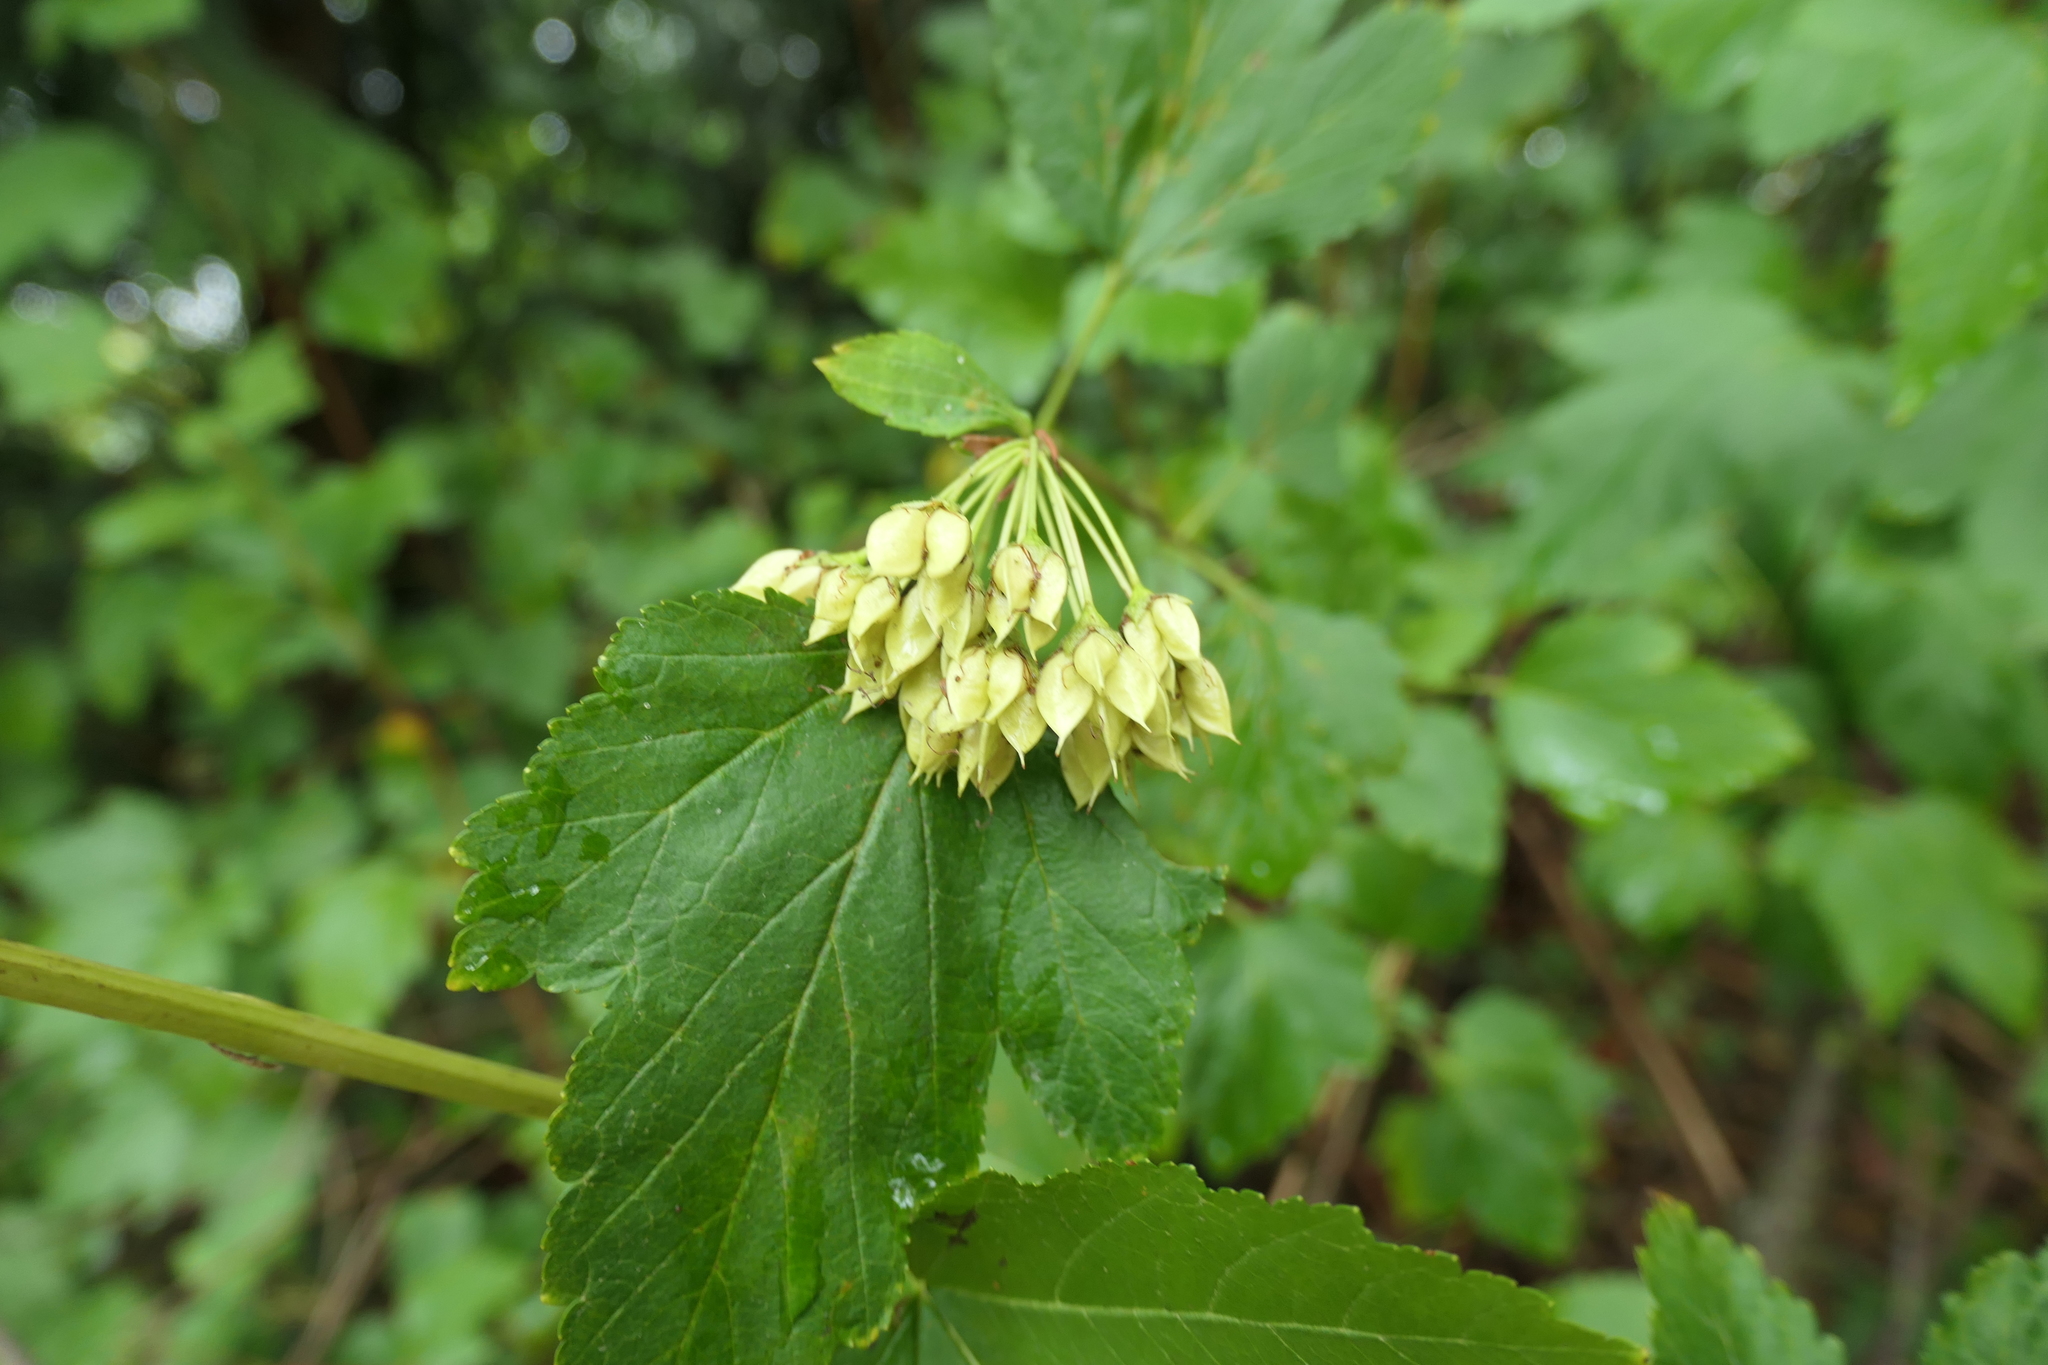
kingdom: Plantae
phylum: Tracheophyta
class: Magnoliopsida
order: Rosales
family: Rosaceae
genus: Physocarpus
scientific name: Physocarpus capitatus
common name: Pacific ninebark
